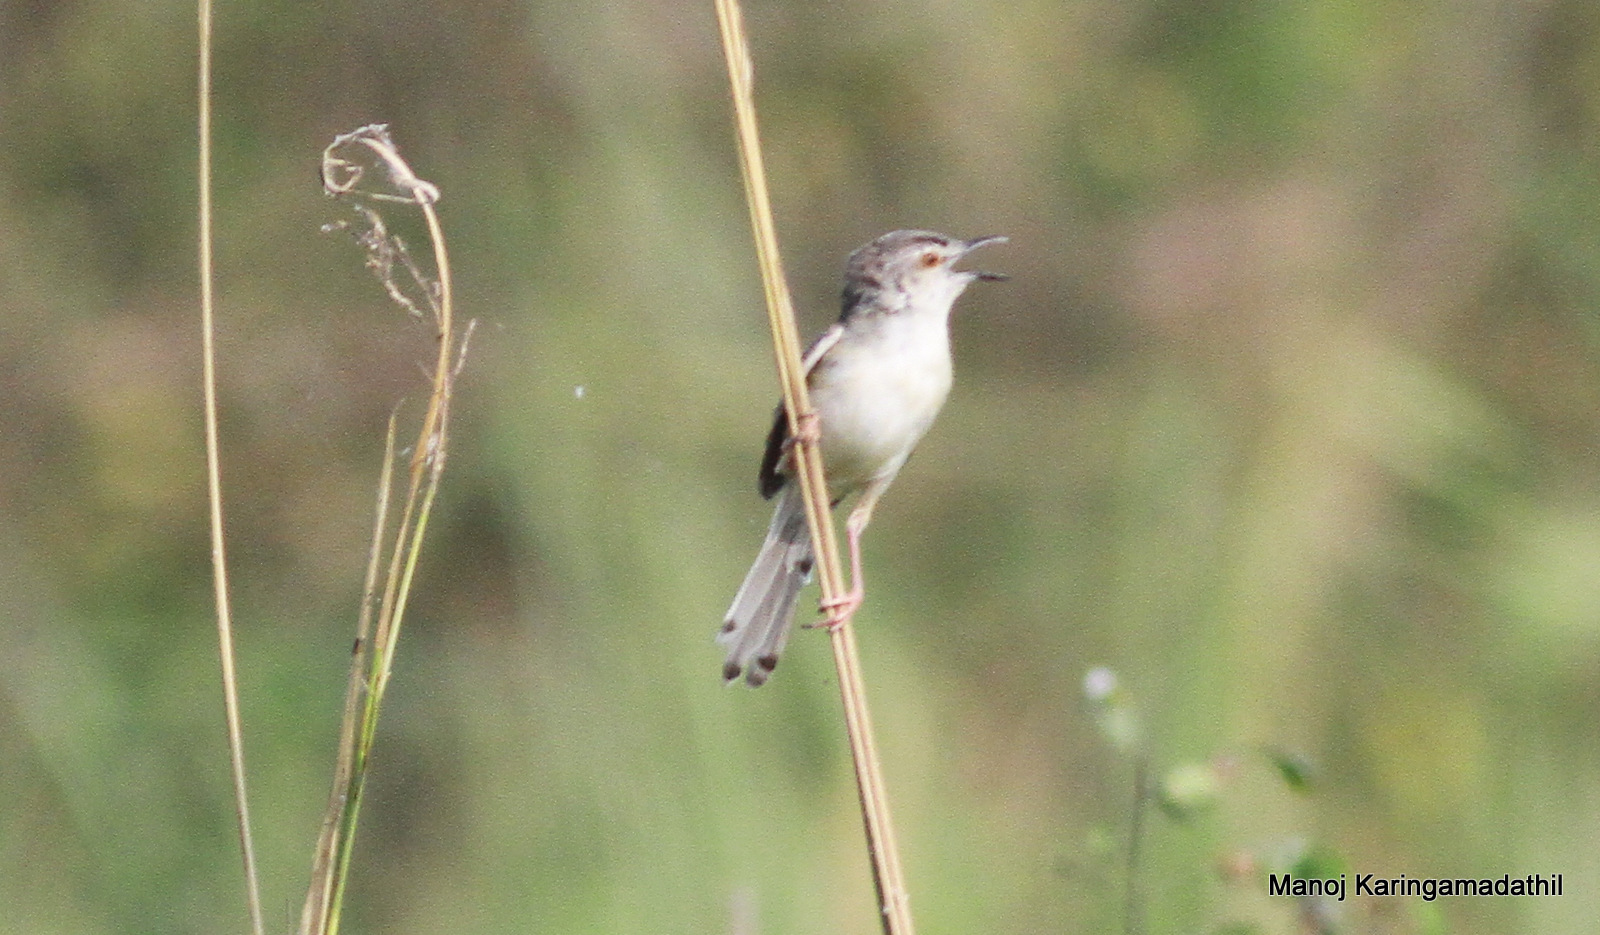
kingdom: Animalia
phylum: Chordata
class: Aves
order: Passeriformes
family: Cisticolidae
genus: Prinia
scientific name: Prinia inornata
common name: Plain prinia
